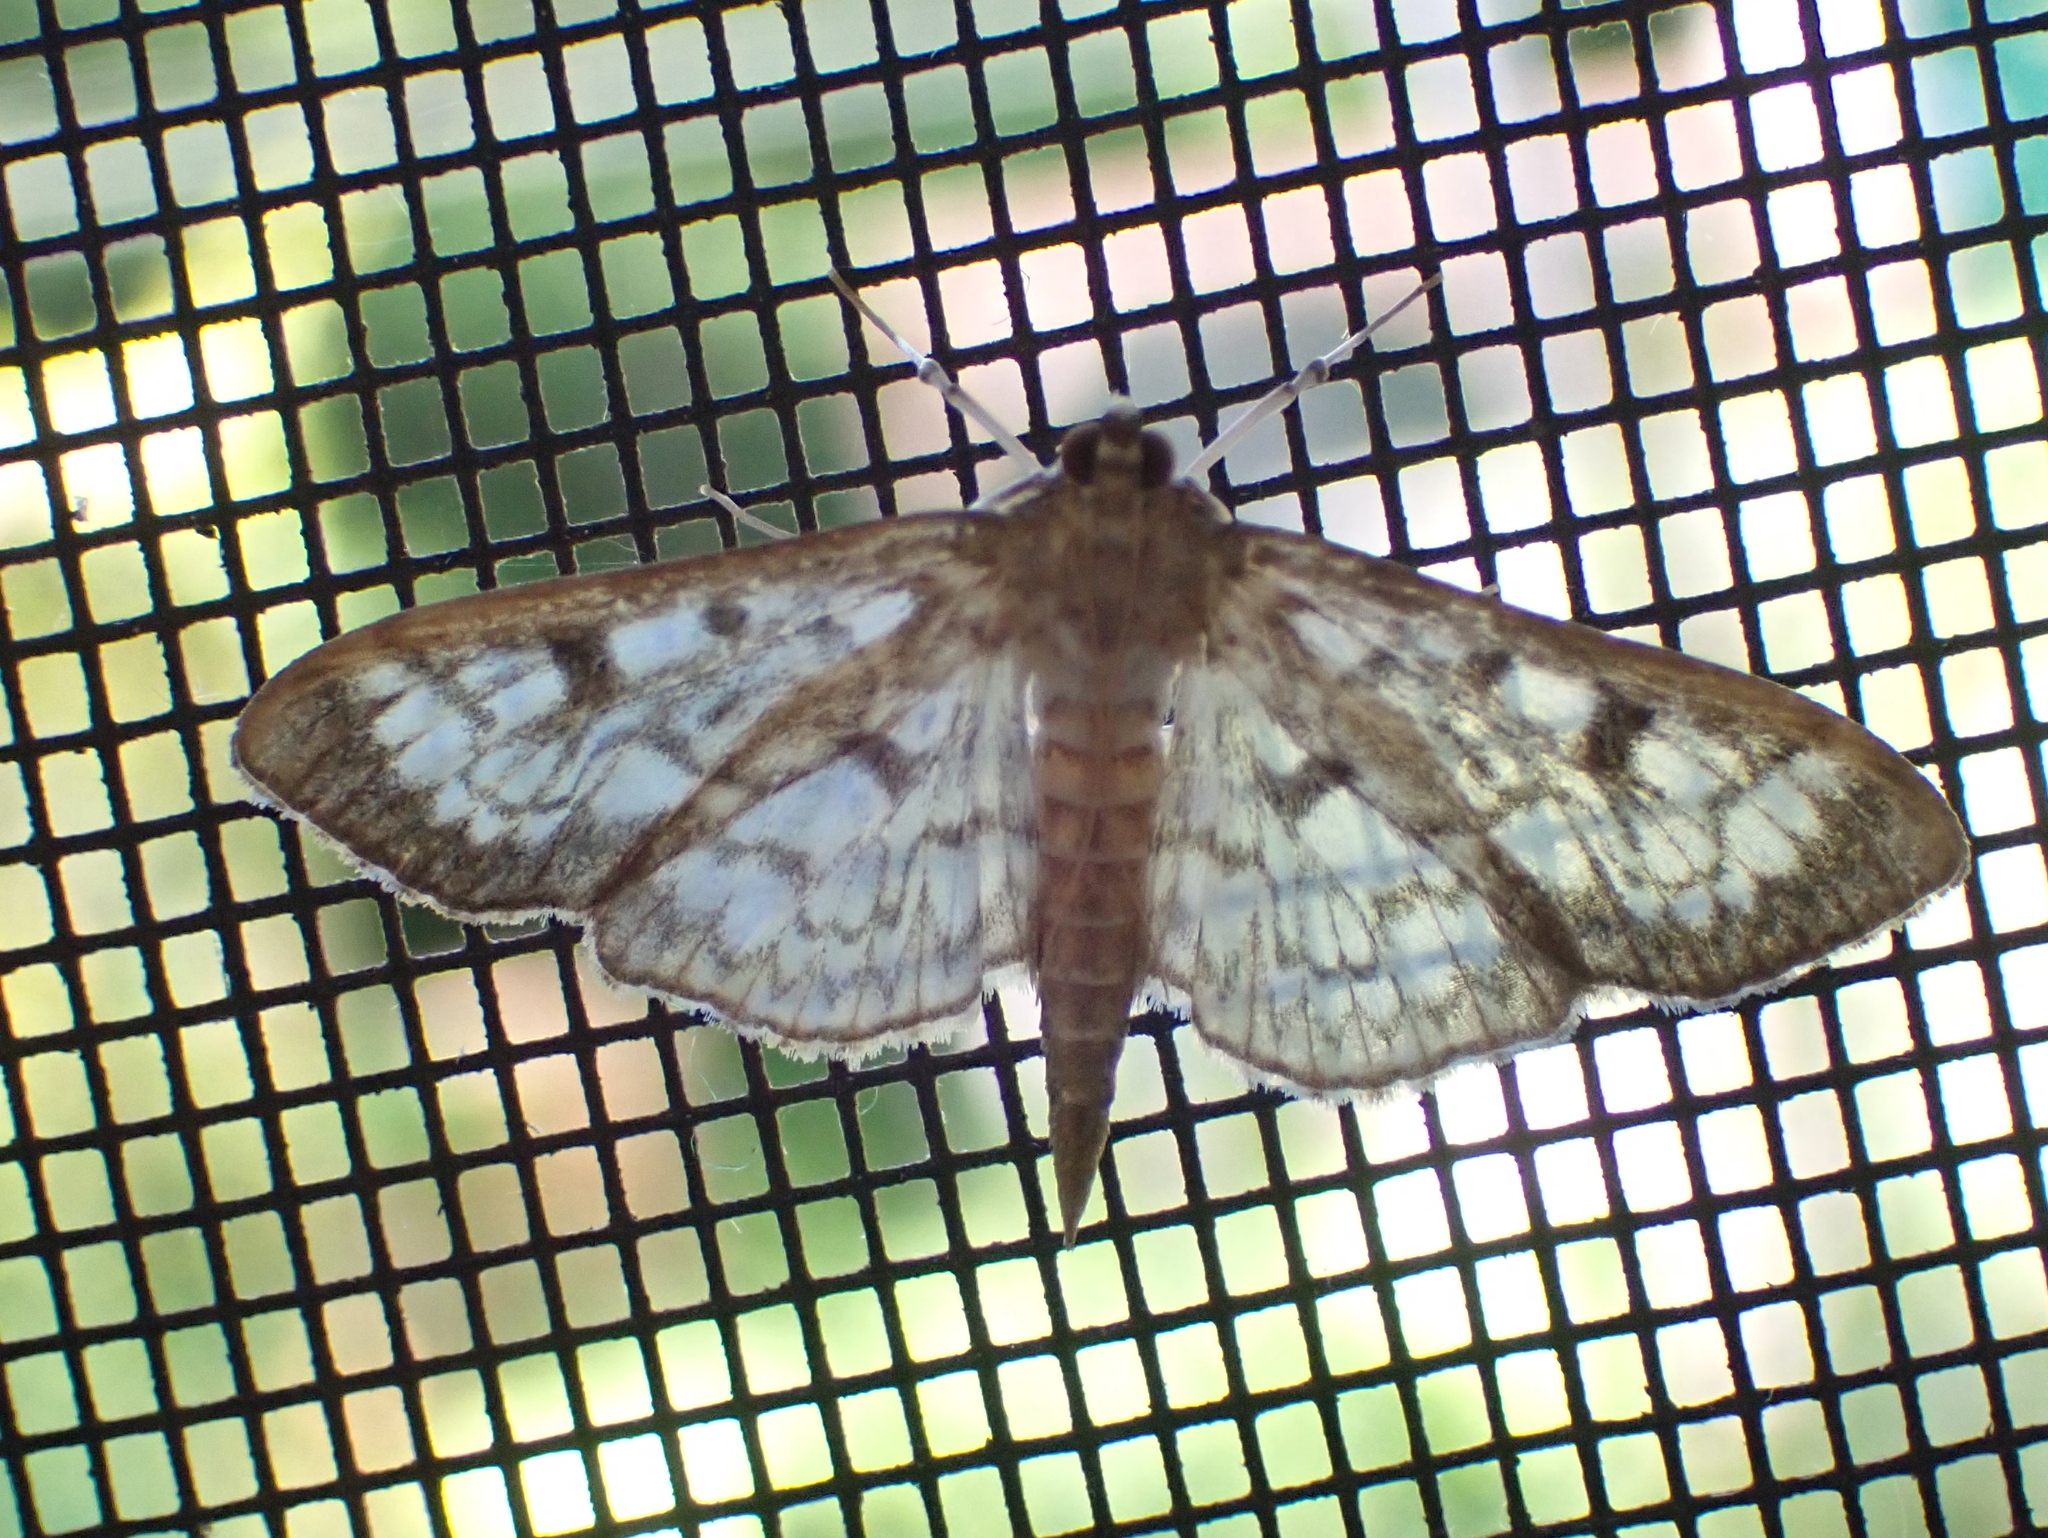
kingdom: Animalia
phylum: Arthropoda
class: Insecta
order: Lepidoptera
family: Crambidae
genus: Herpetogramma
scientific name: Herpetogramma thestealis
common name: Zigzag herpetogramma moth
